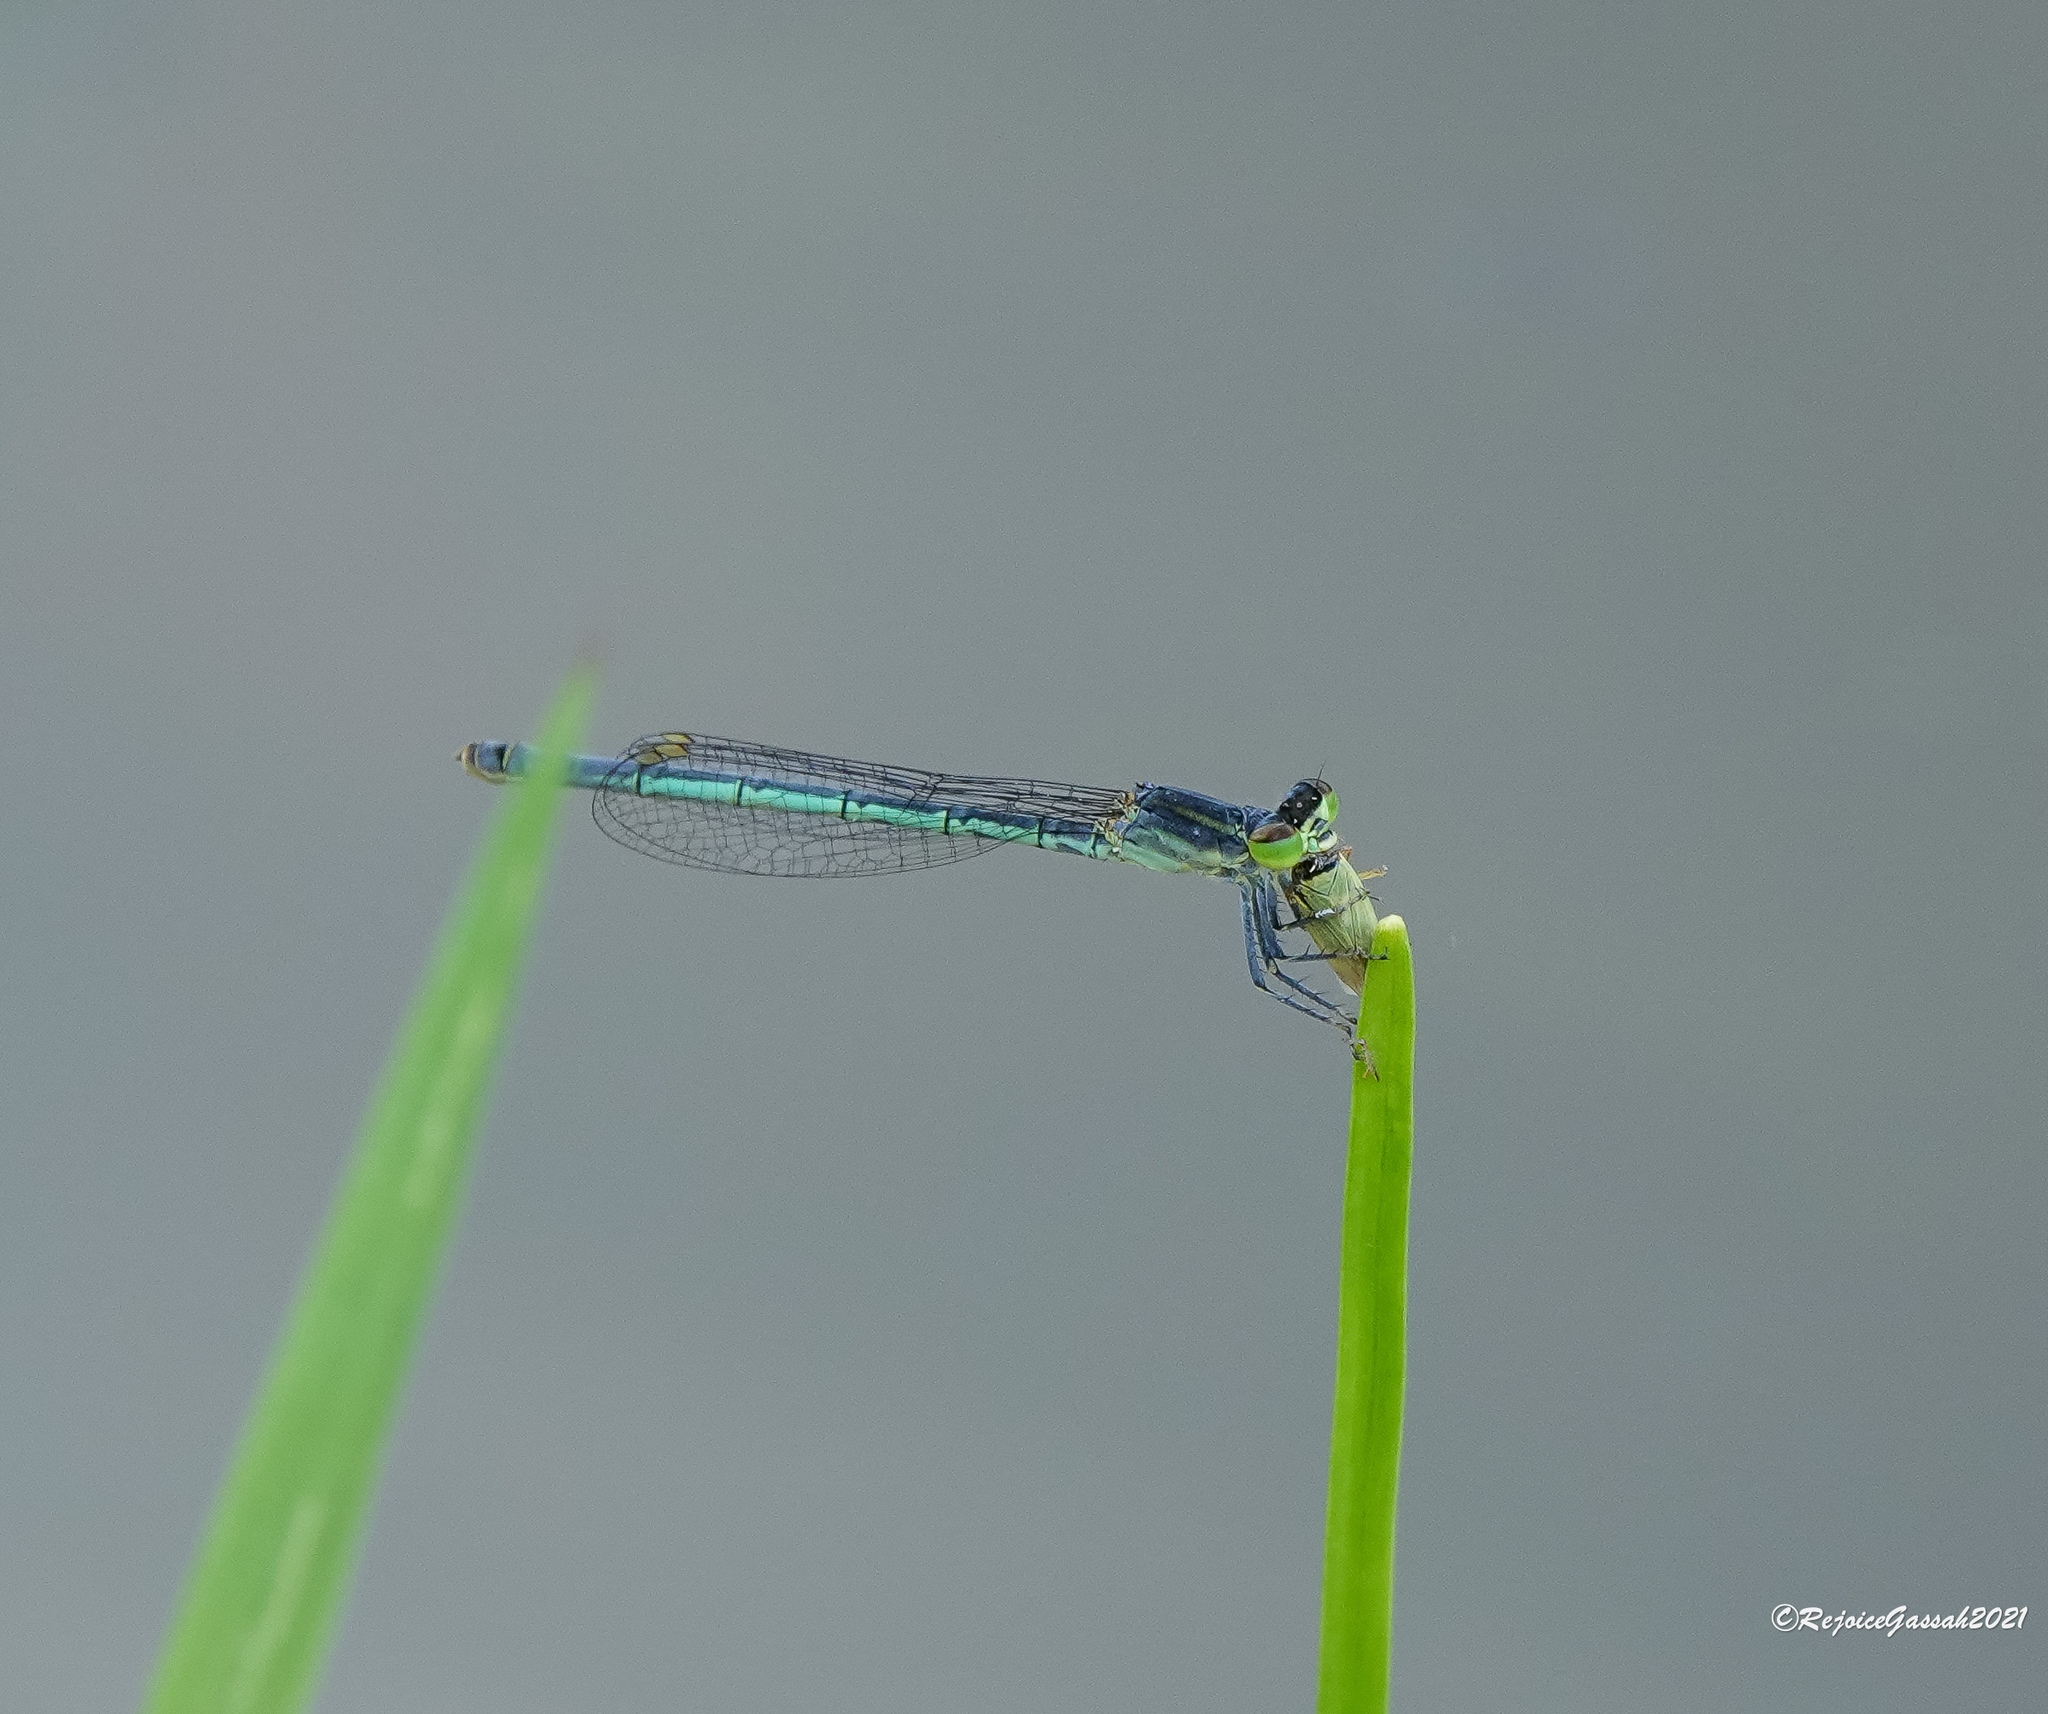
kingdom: Animalia
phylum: Arthropoda
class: Insecta
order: Odonata
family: Coenagrionidae
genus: Agriocnemis
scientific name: Agriocnemis kalinga
